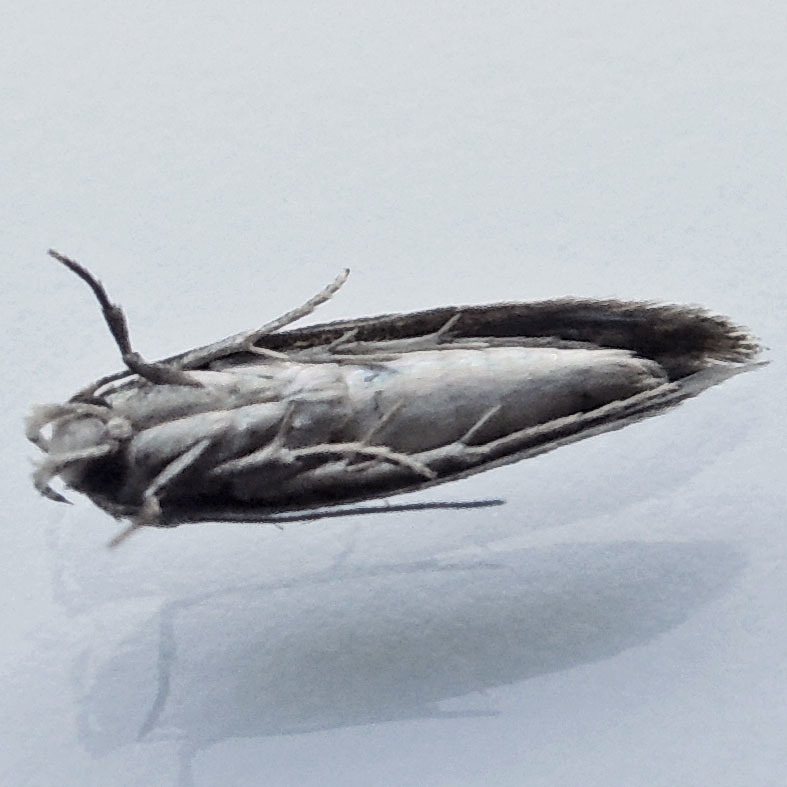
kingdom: Animalia
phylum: Arthropoda
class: Insecta
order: Lepidoptera
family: Momphidae
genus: Mompha
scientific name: Mompha brevivittella
